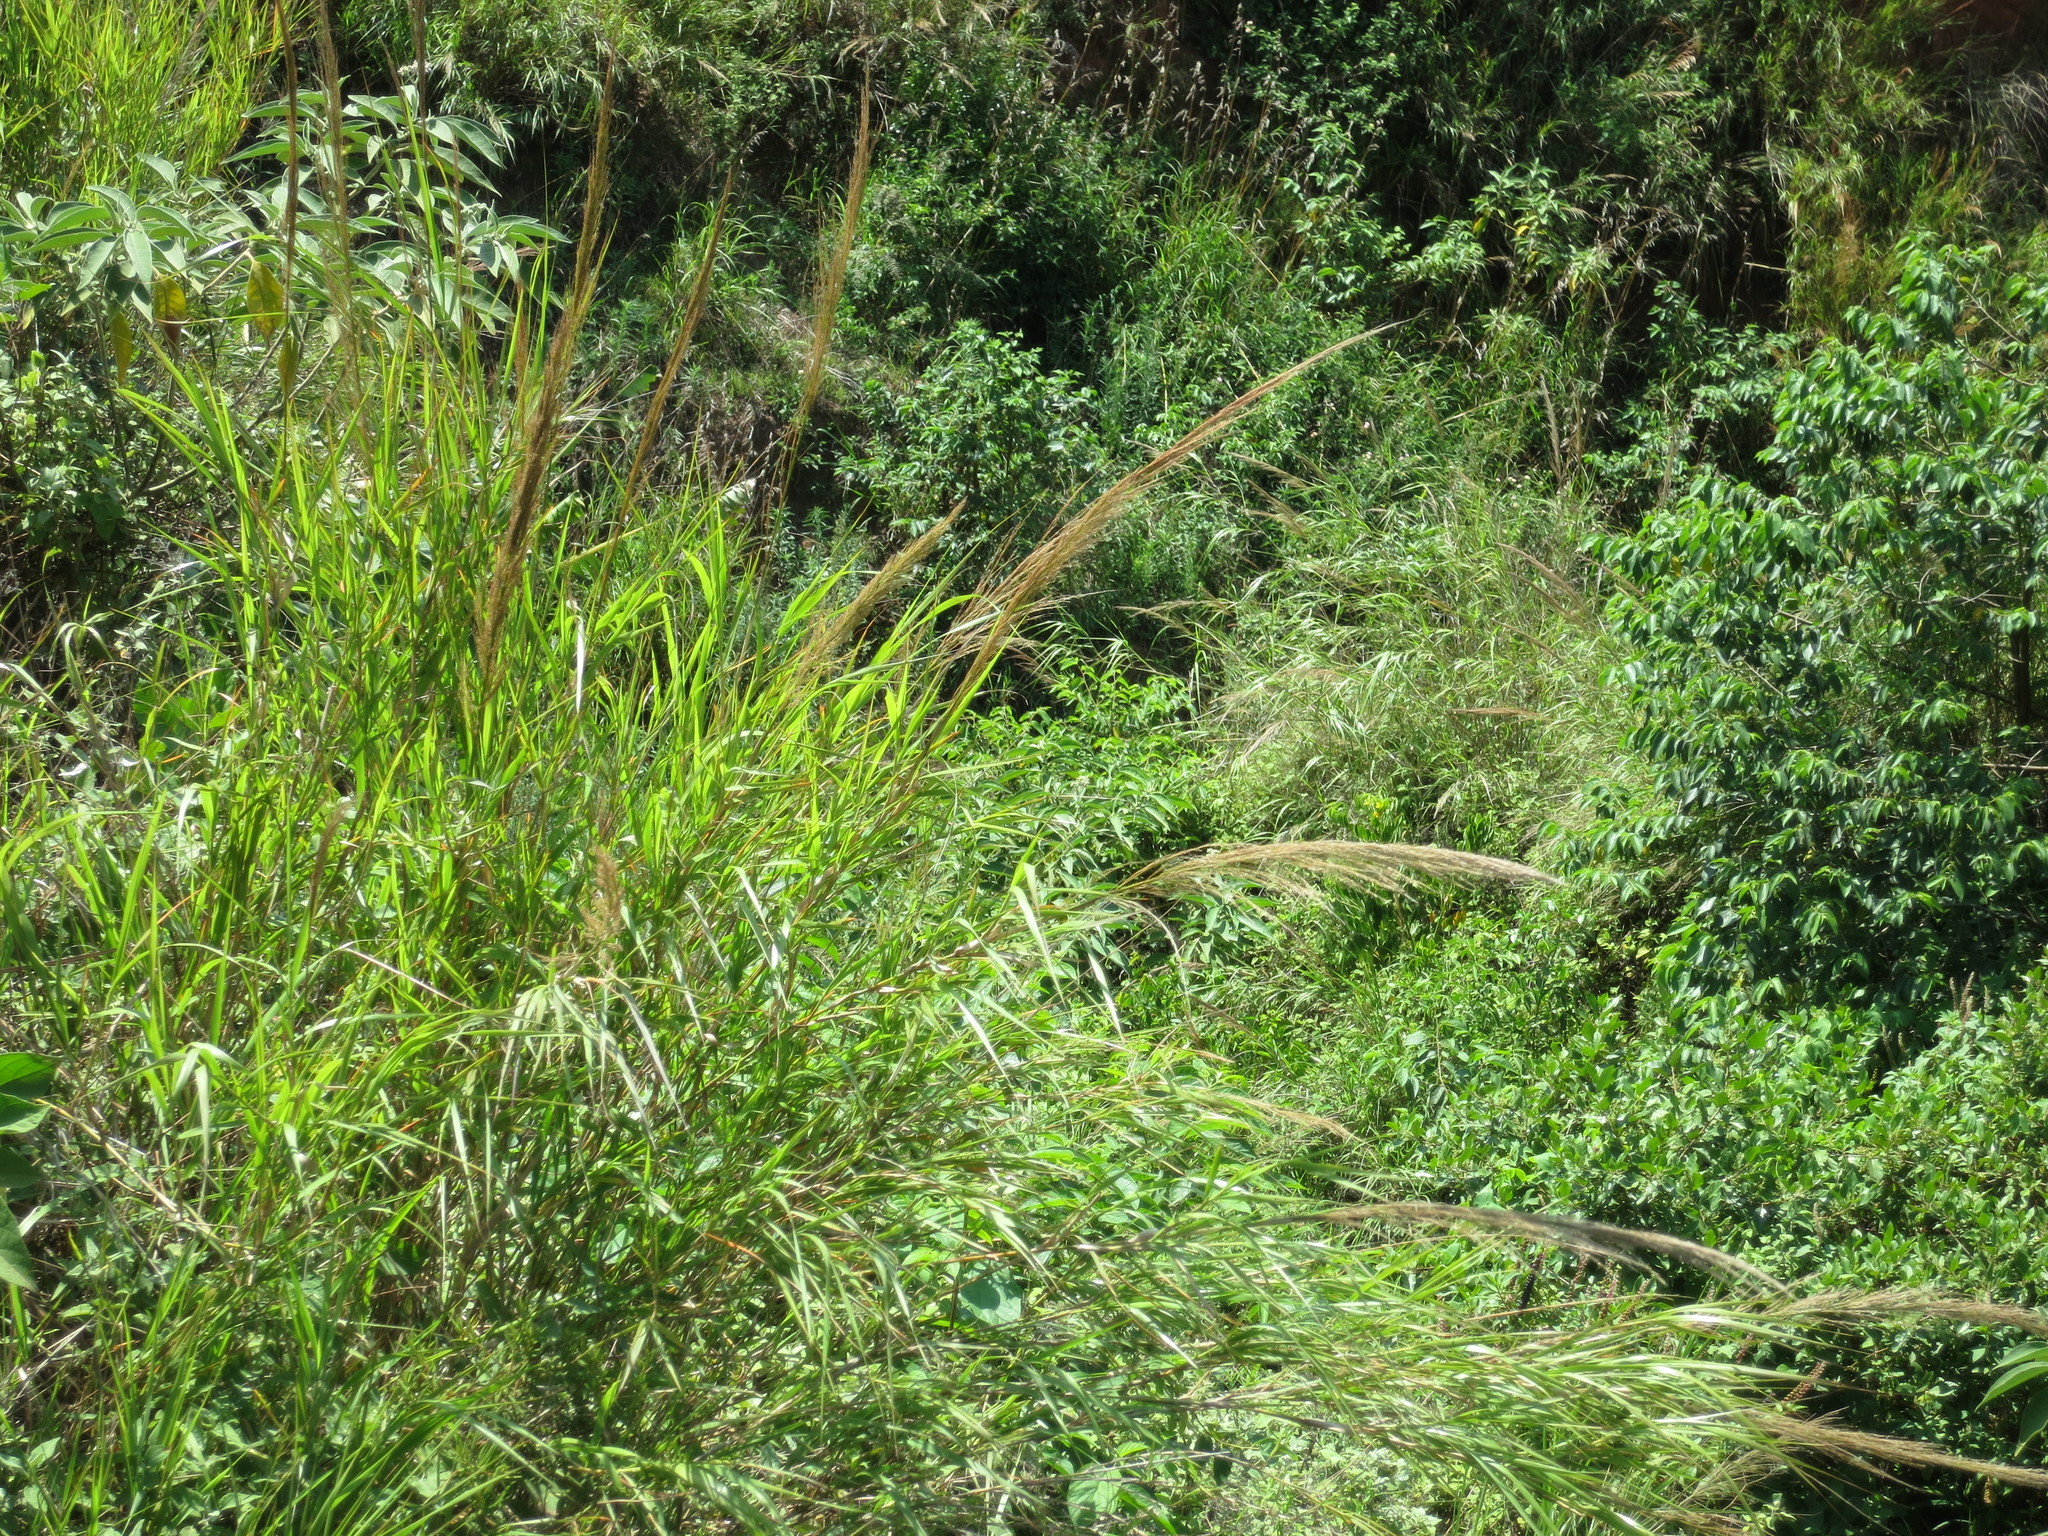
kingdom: Plantae
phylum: Tracheophyta
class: Liliopsida
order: Poales
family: Poaceae
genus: Neyraudia
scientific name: Neyraudia arundinacea
